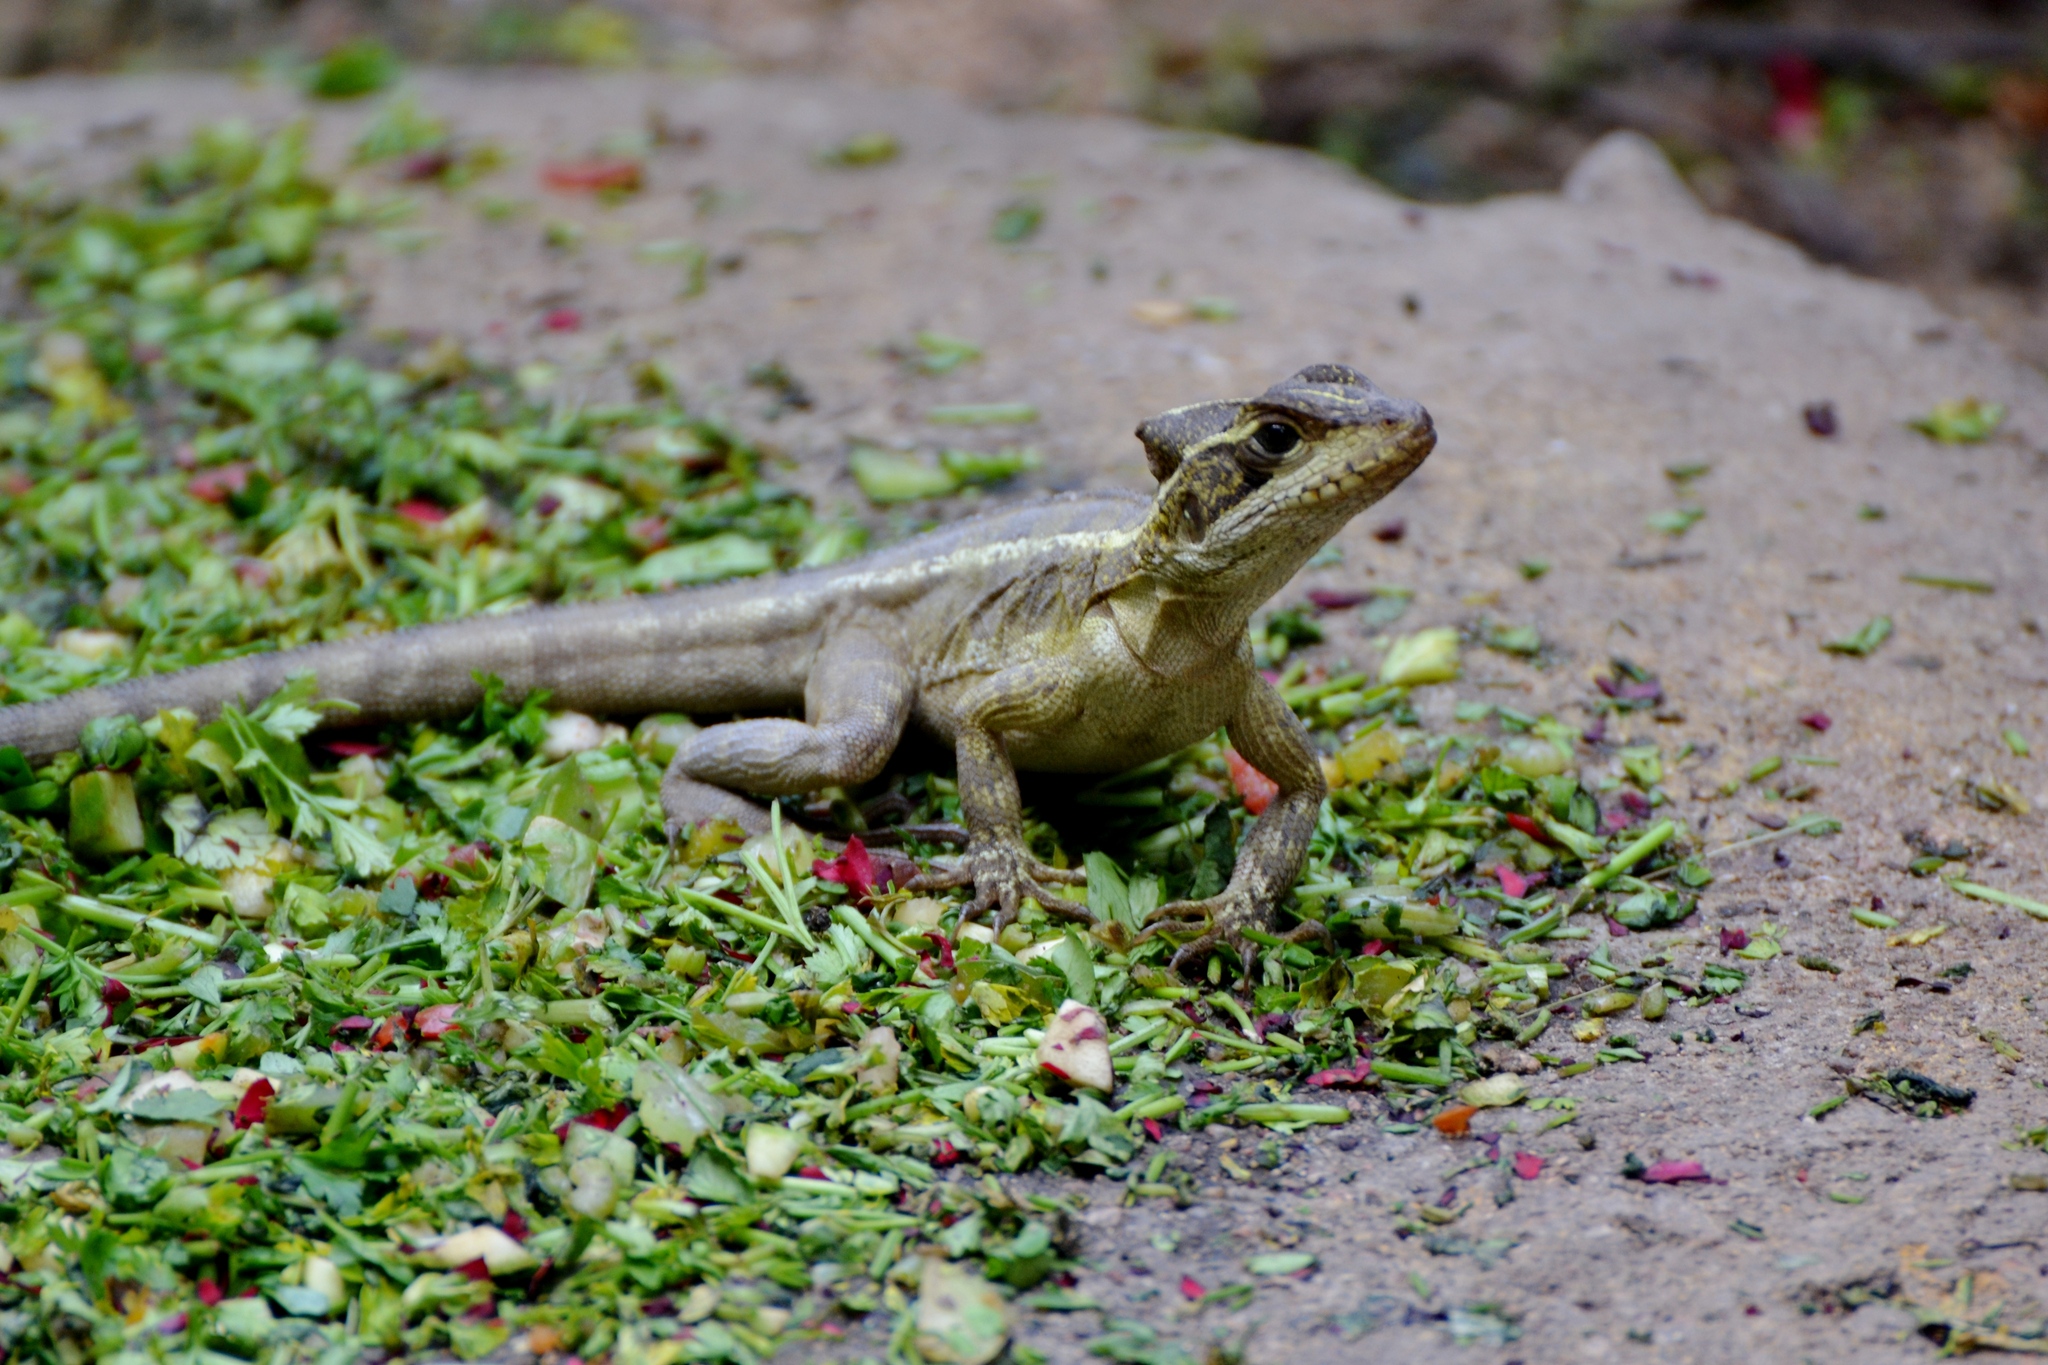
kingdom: Animalia
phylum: Chordata
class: Squamata
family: Corytophanidae
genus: Basiliscus
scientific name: Basiliscus vittatus
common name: Brown basilisk
